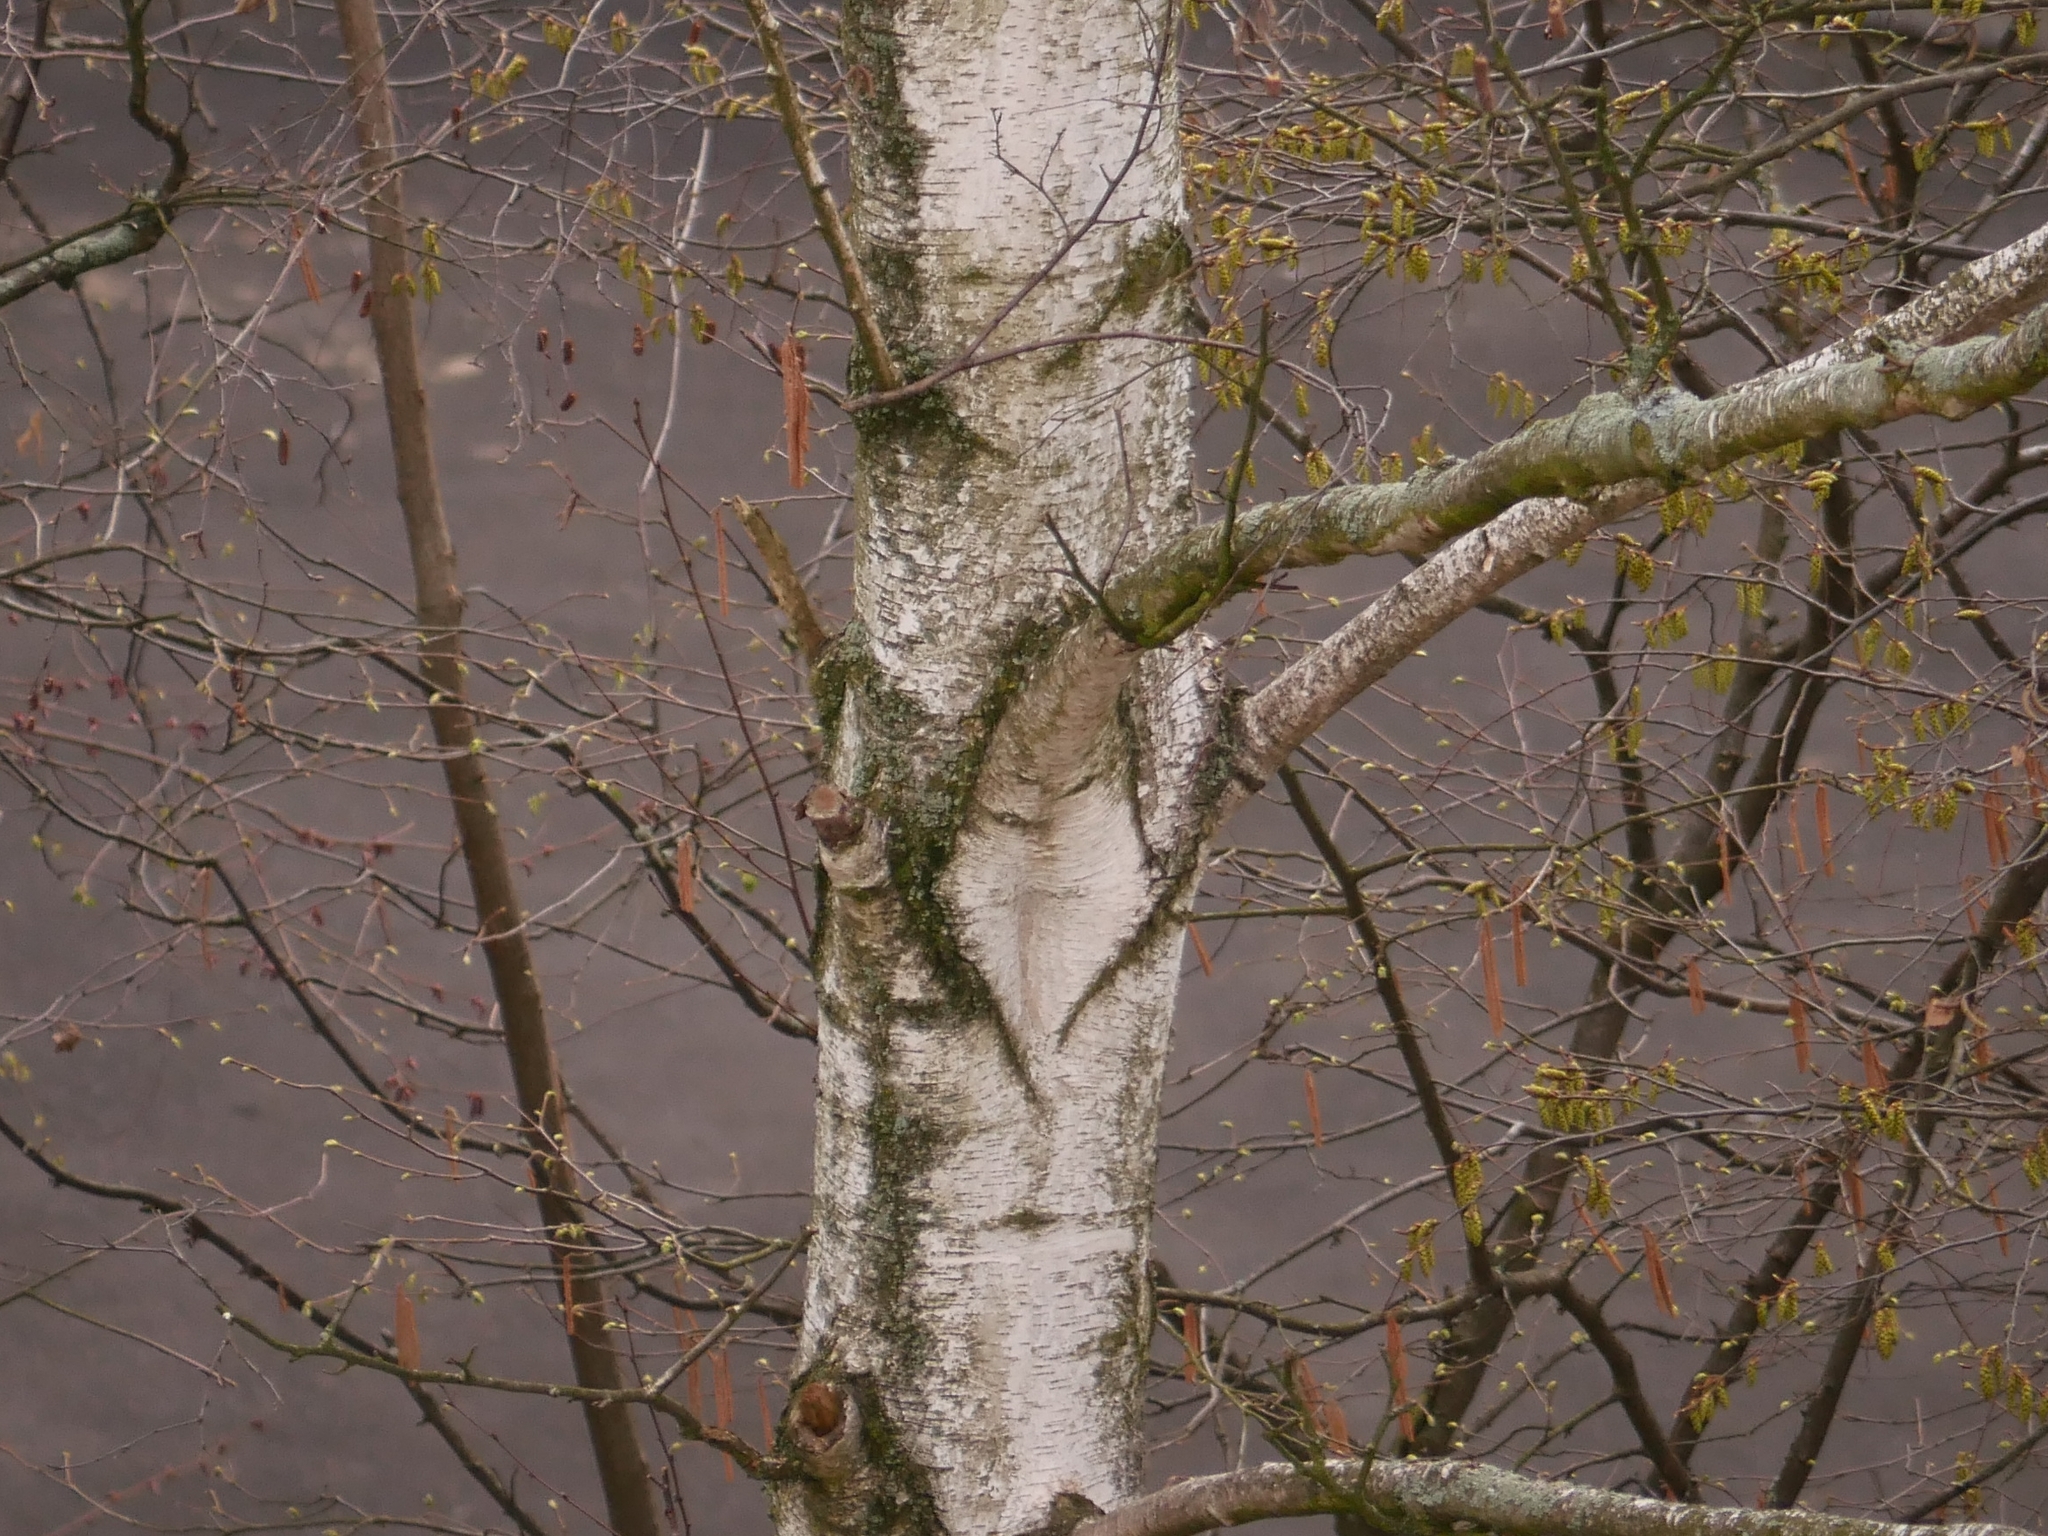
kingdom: Plantae
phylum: Tracheophyta
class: Magnoliopsida
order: Fagales
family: Betulaceae
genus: Betula
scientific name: Betula pendula
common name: Silver birch
